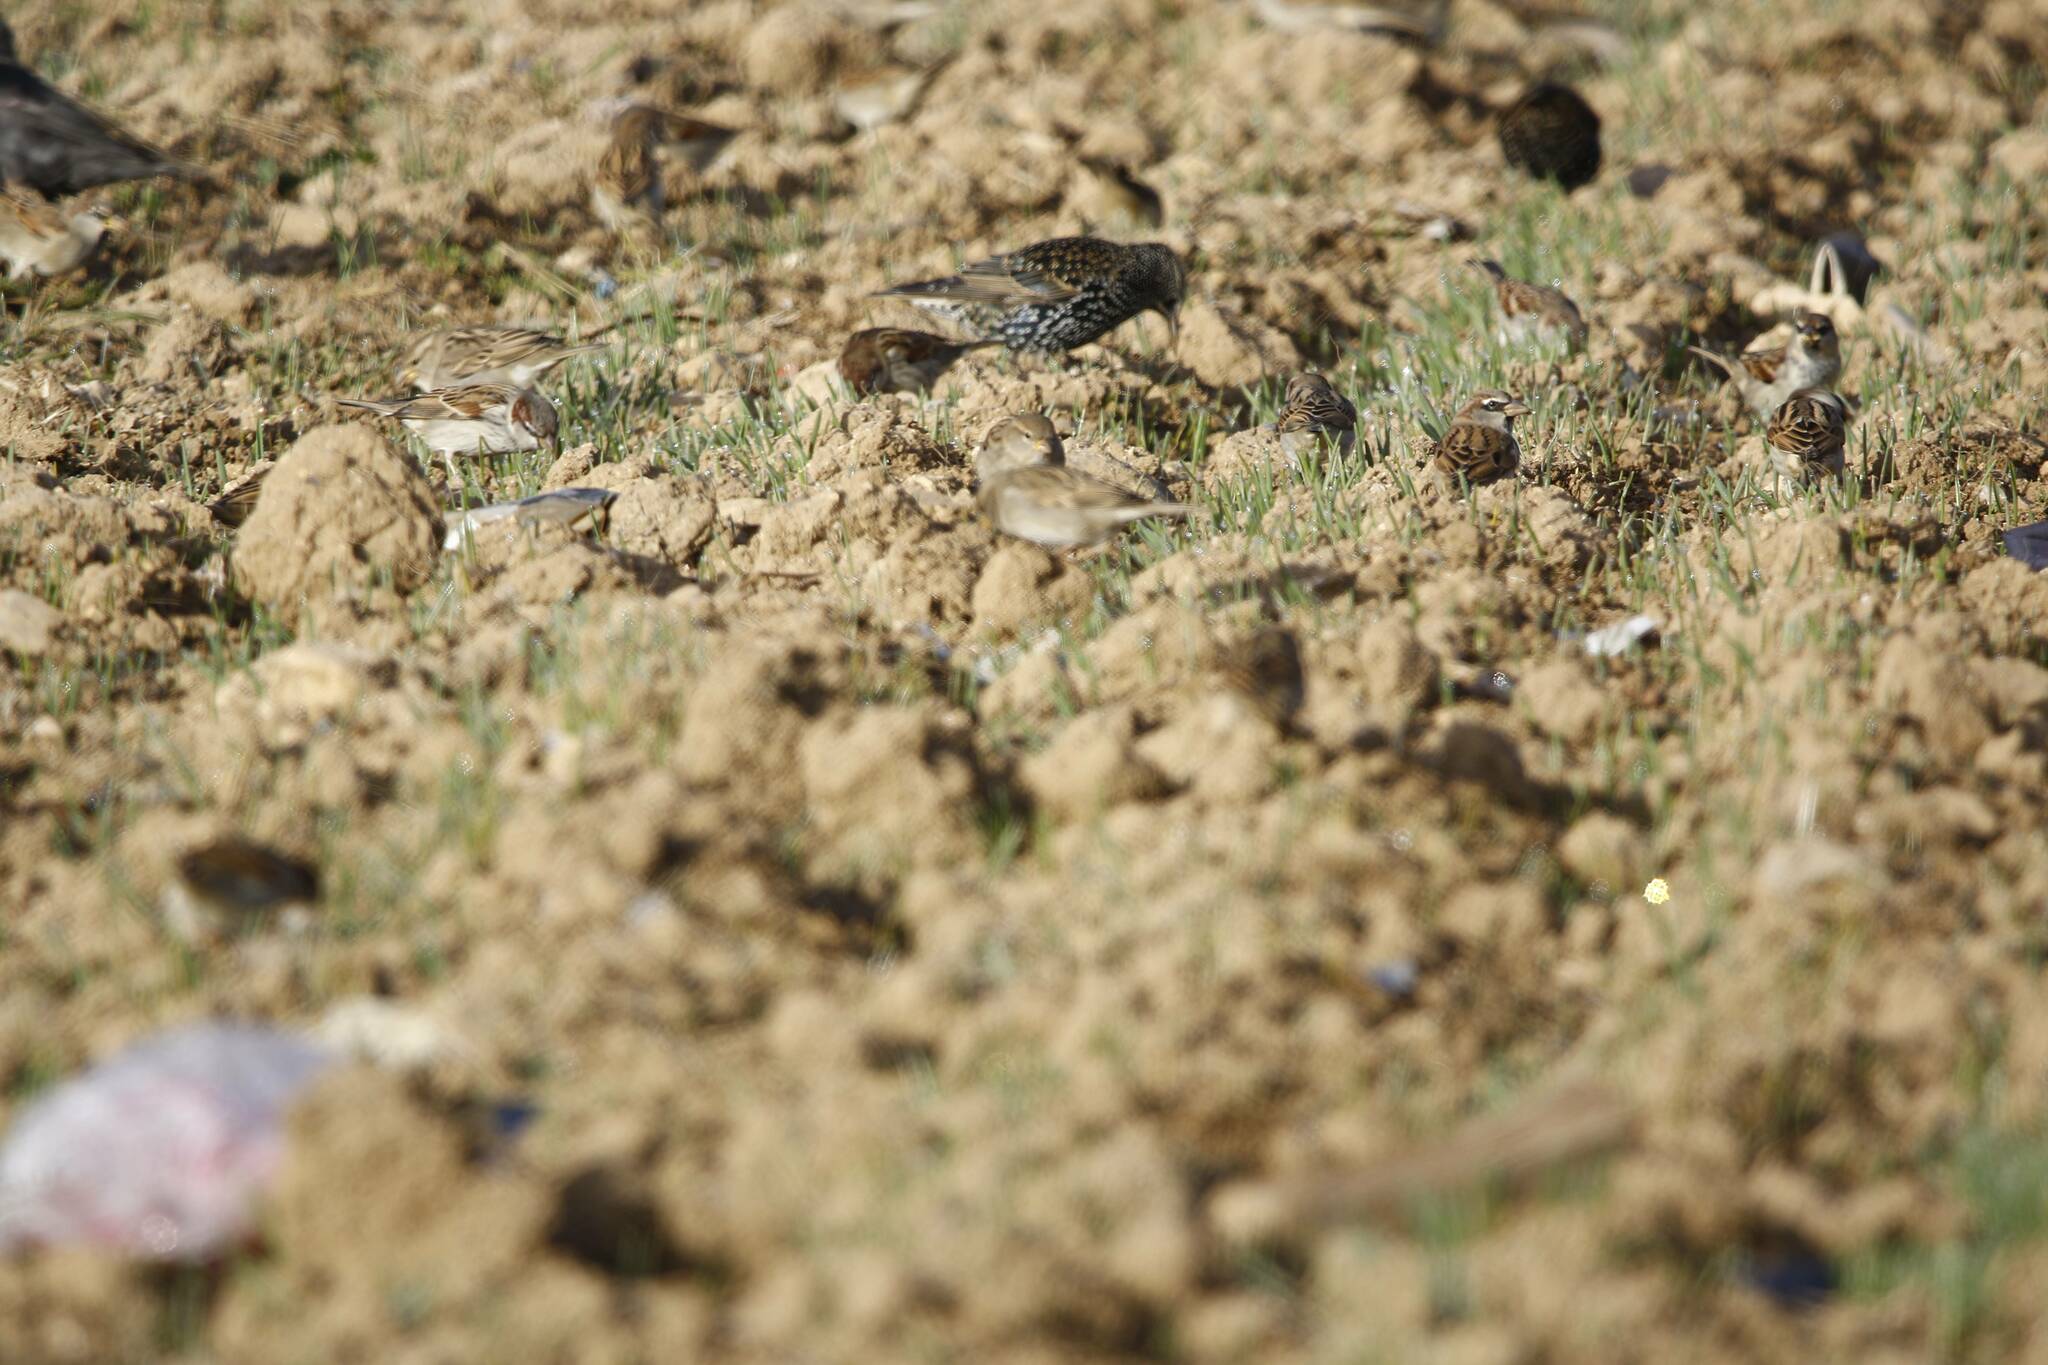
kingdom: Animalia
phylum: Chordata
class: Aves
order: Passeriformes
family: Sturnidae
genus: Sturnus
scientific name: Sturnus vulgaris
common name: Common starling
